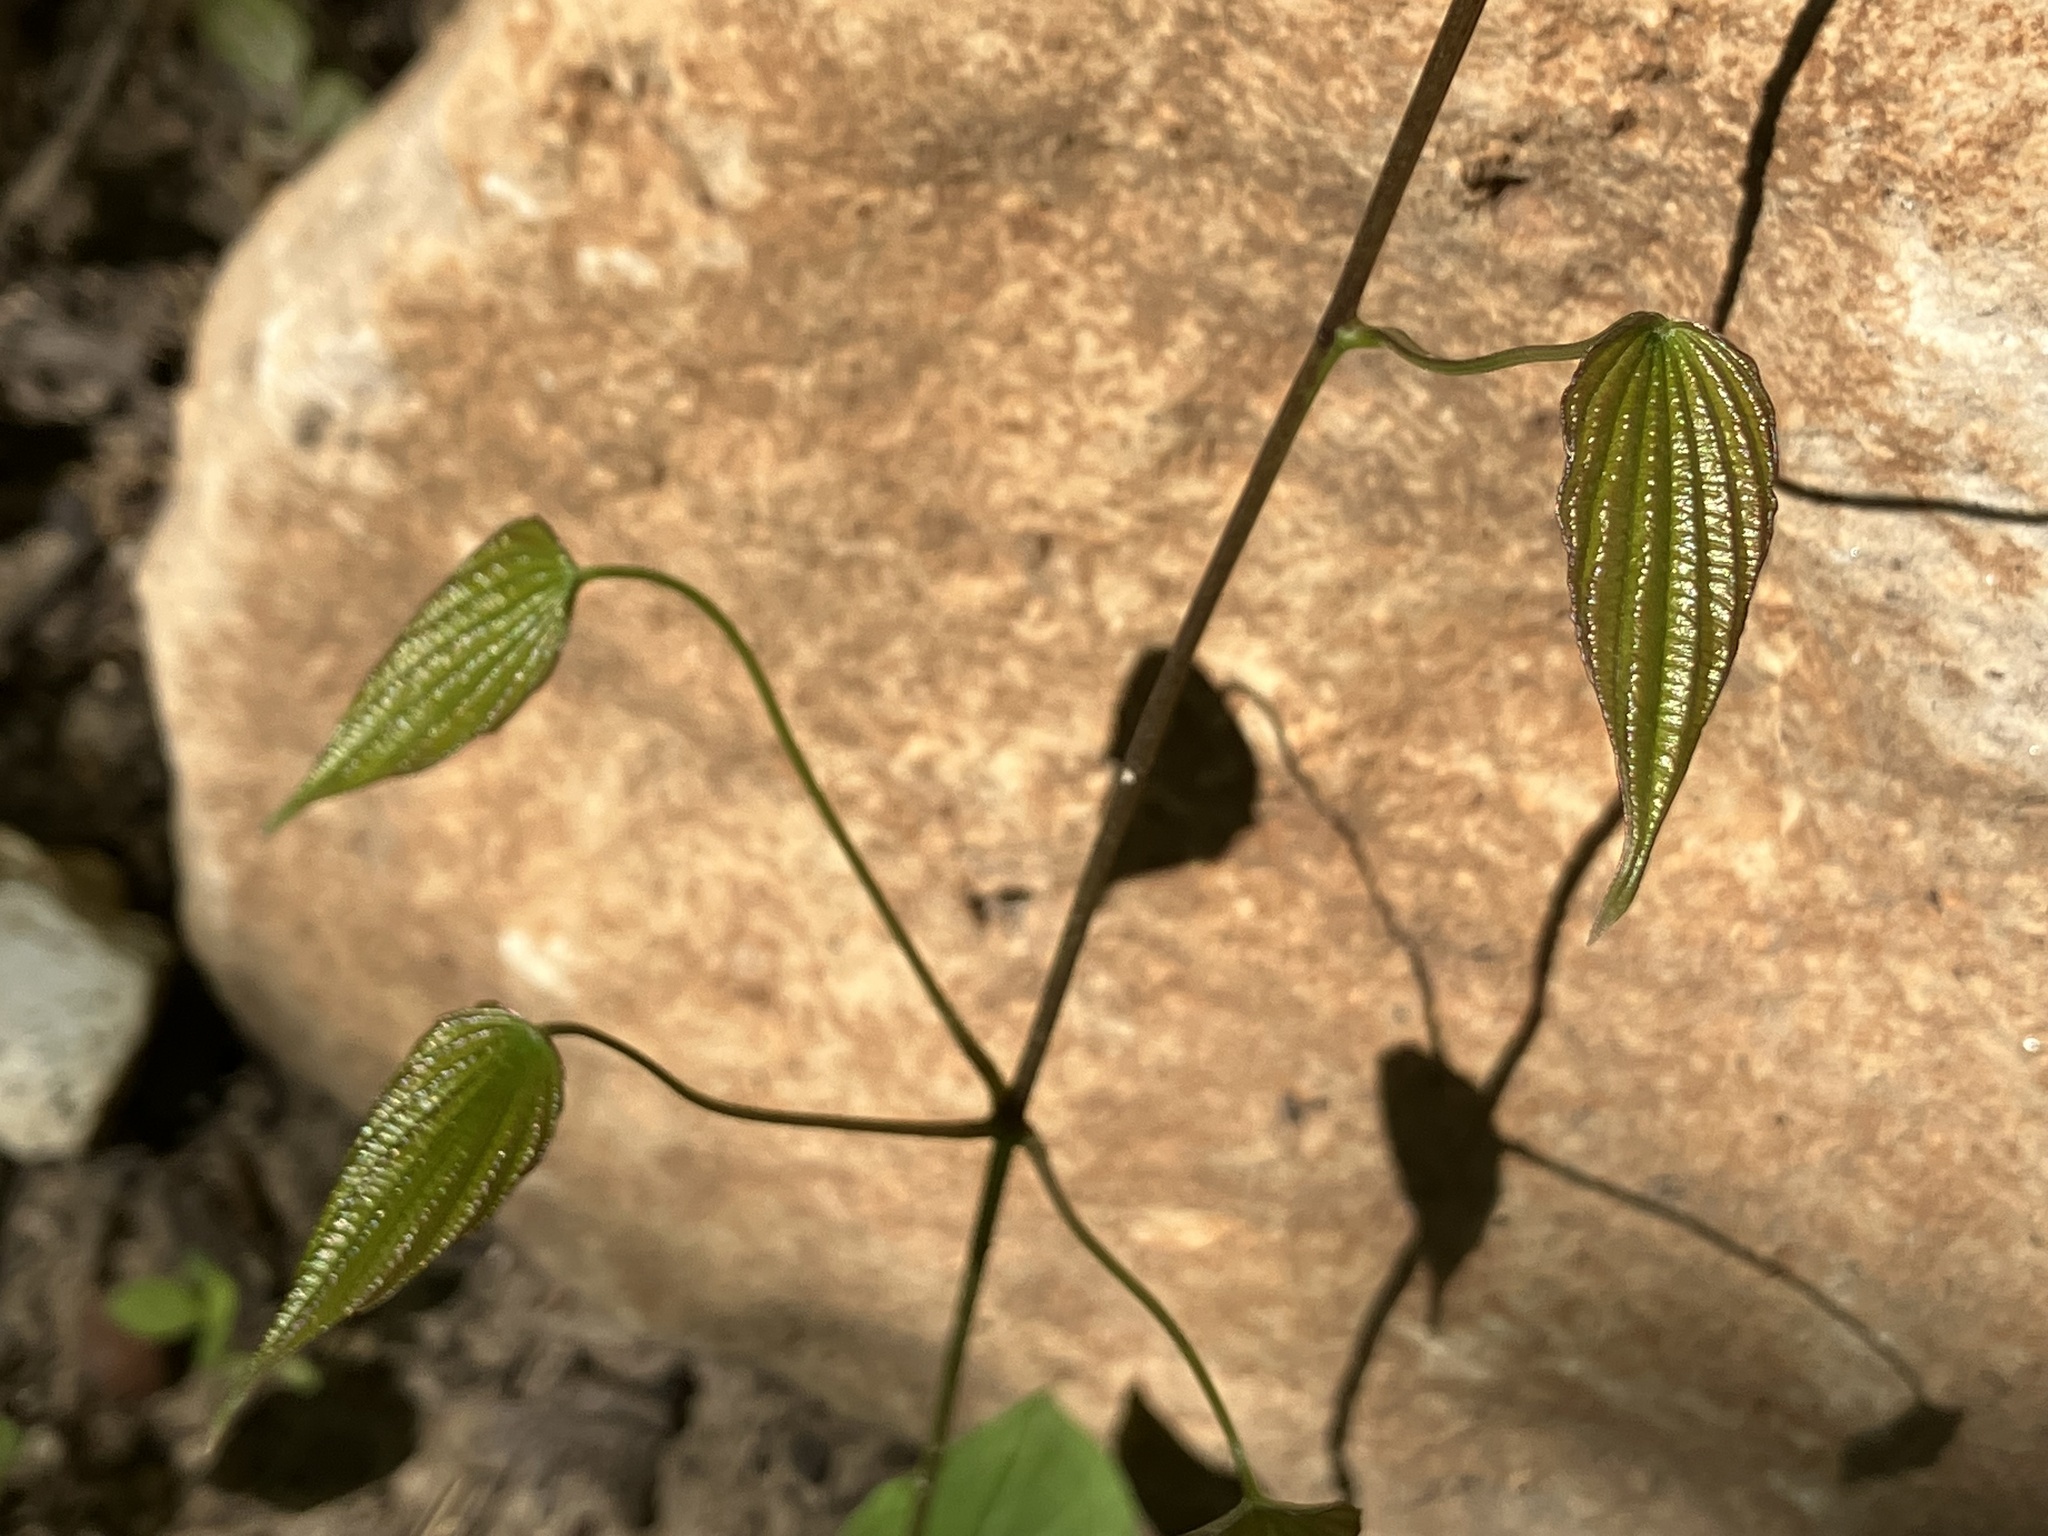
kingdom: Plantae
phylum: Tracheophyta
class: Liliopsida
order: Dioscoreales
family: Dioscoreaceae
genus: Dioscorea
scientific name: Dioscorea villosa
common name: Wild yam
